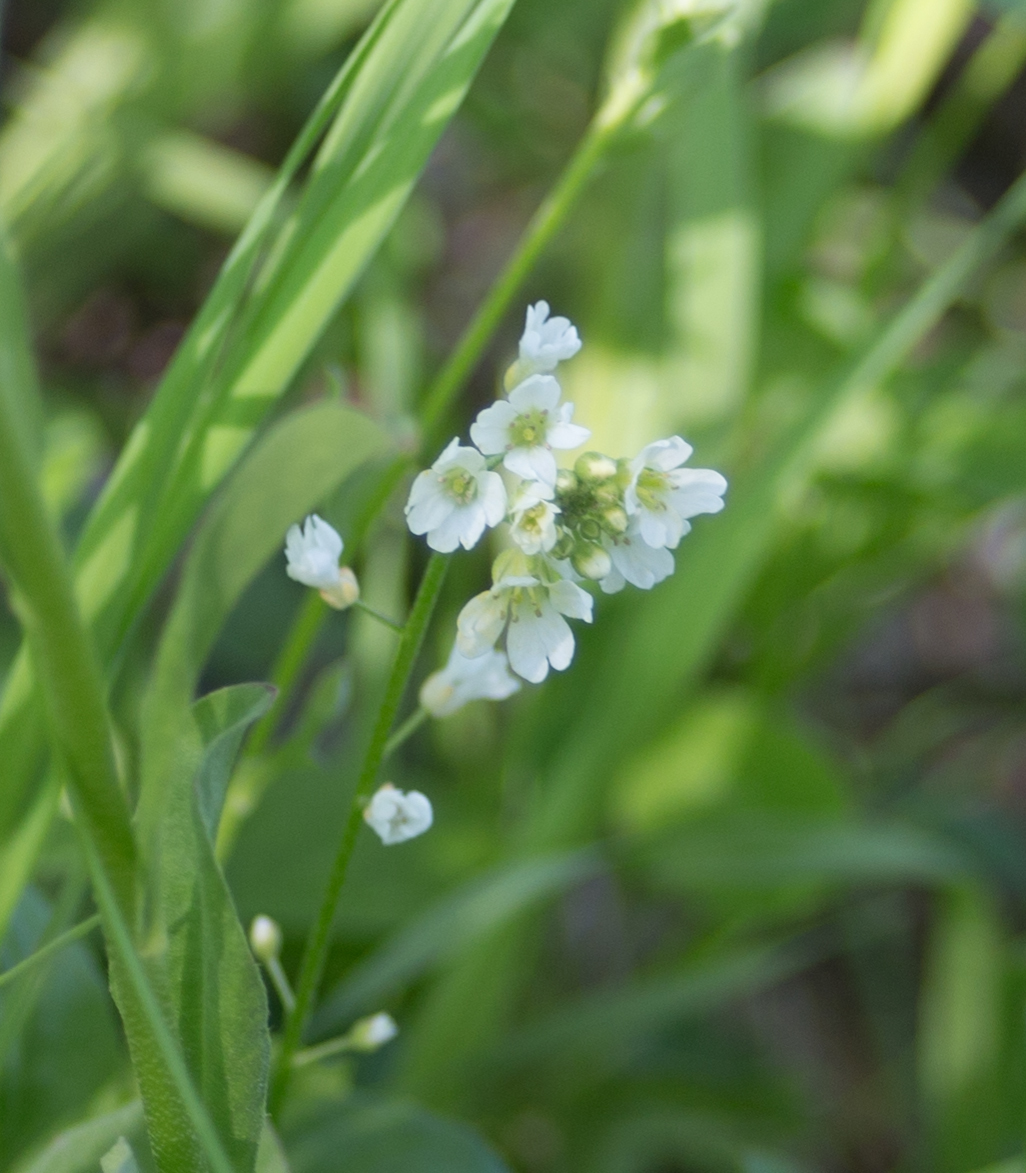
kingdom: Plantae
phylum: Tracheophyta
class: Magnoliopsida
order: Brassicales
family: Brassicaceae
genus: Berteroa
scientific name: Berteroa incana
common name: Hoary alison
